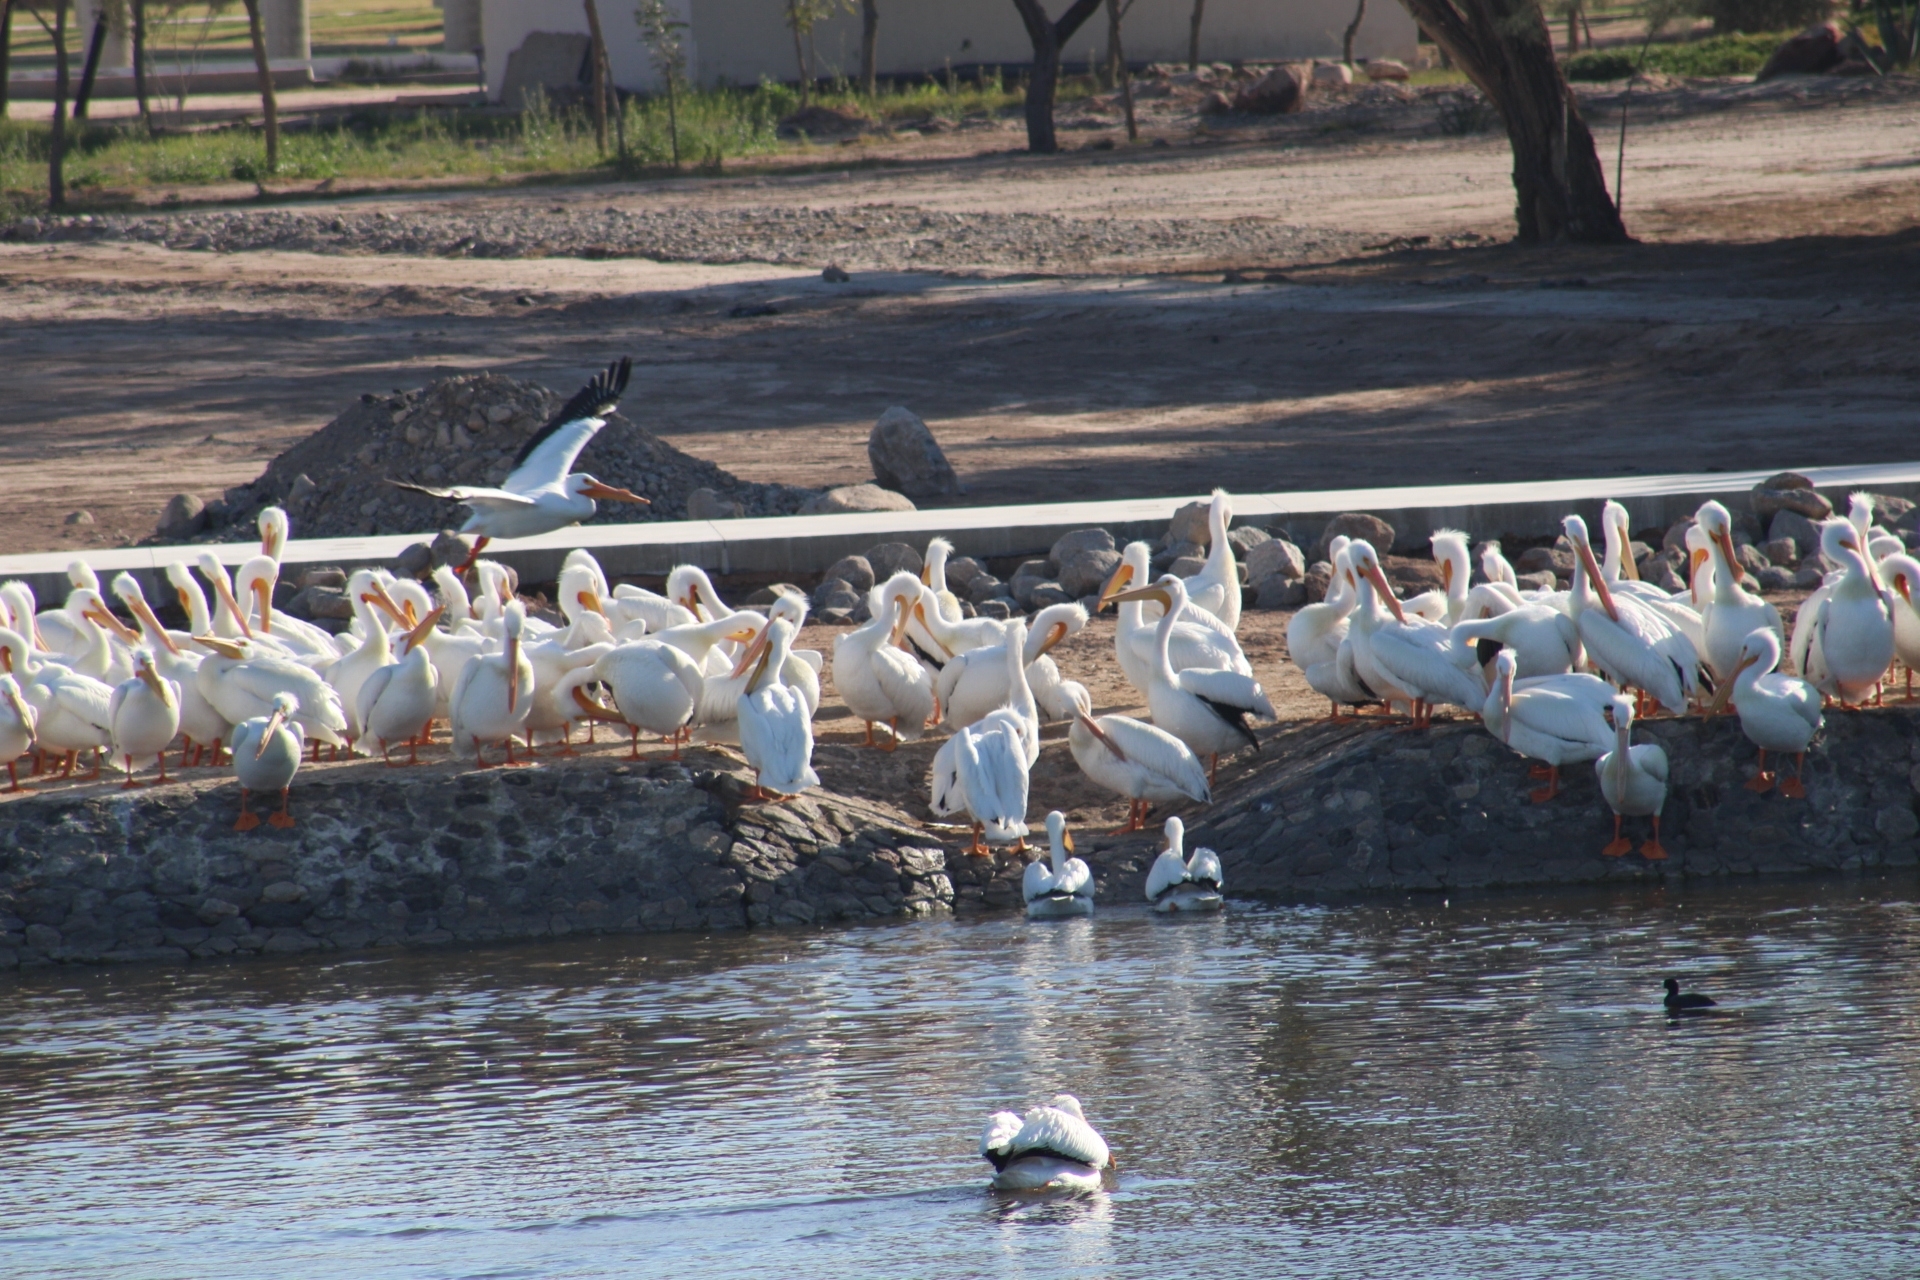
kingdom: Animalia
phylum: Chordata
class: Aves
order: Pelecaniformes
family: Pelecanidae
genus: Pelecanus
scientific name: Pelecanus erythrorhynchos
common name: American white pelican
